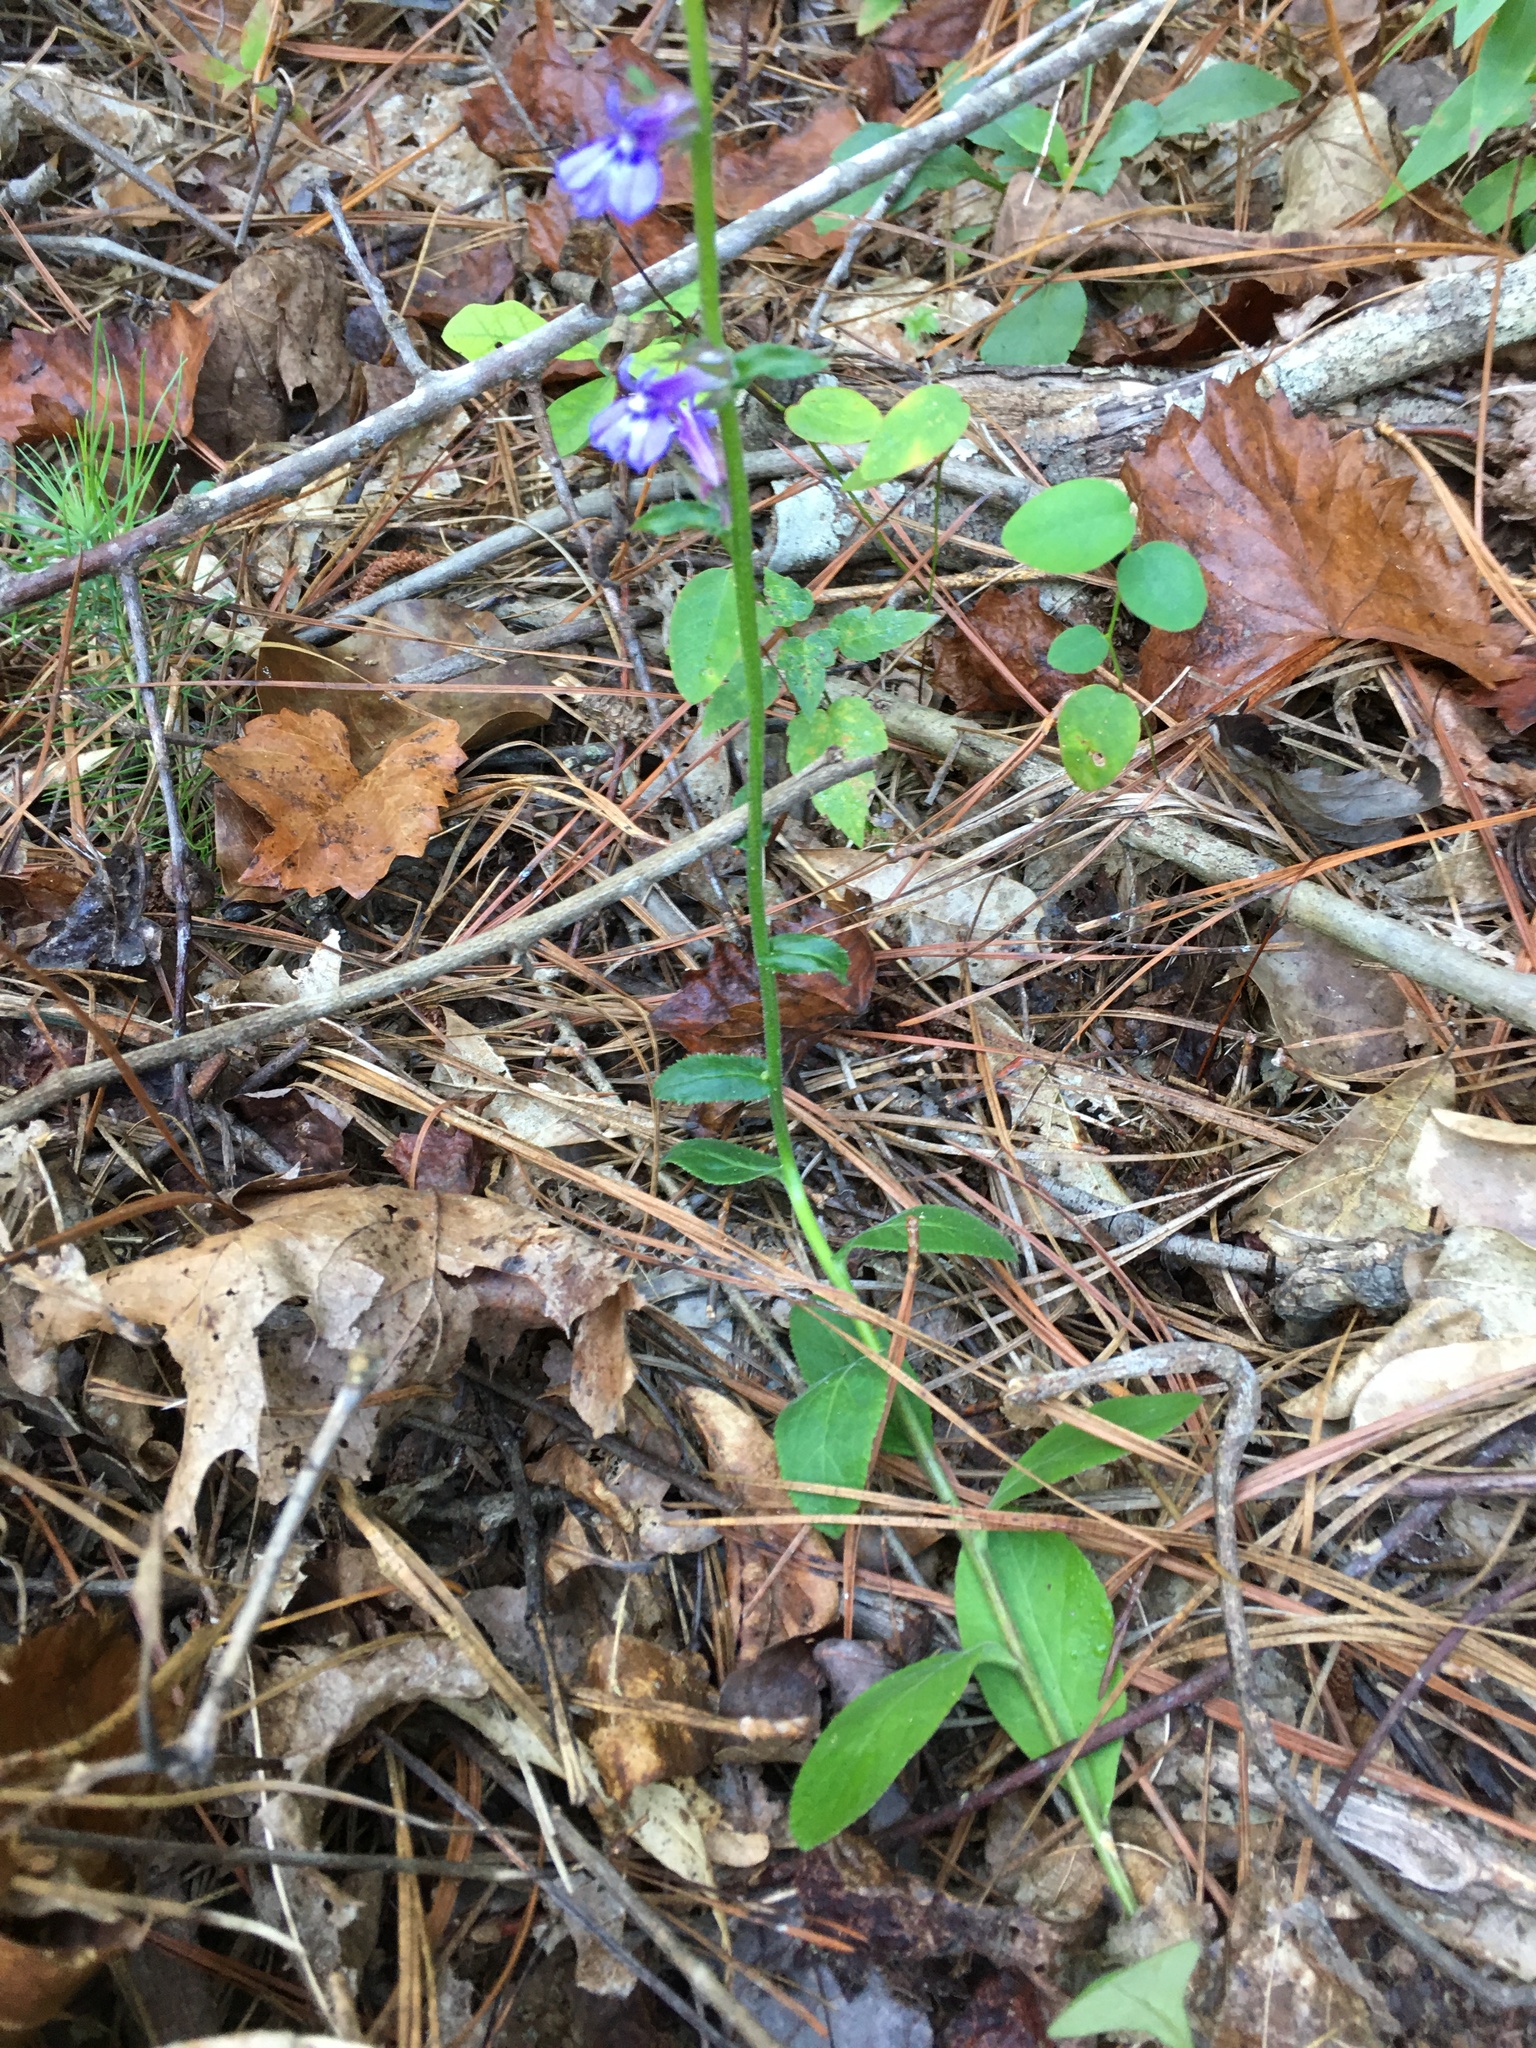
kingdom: Plantae
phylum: Tracheophyta
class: Magnoliopsida
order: Asterales
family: Campanulaceae
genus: Lobelia
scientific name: Lobelia puberula
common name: Purple dewdrop
